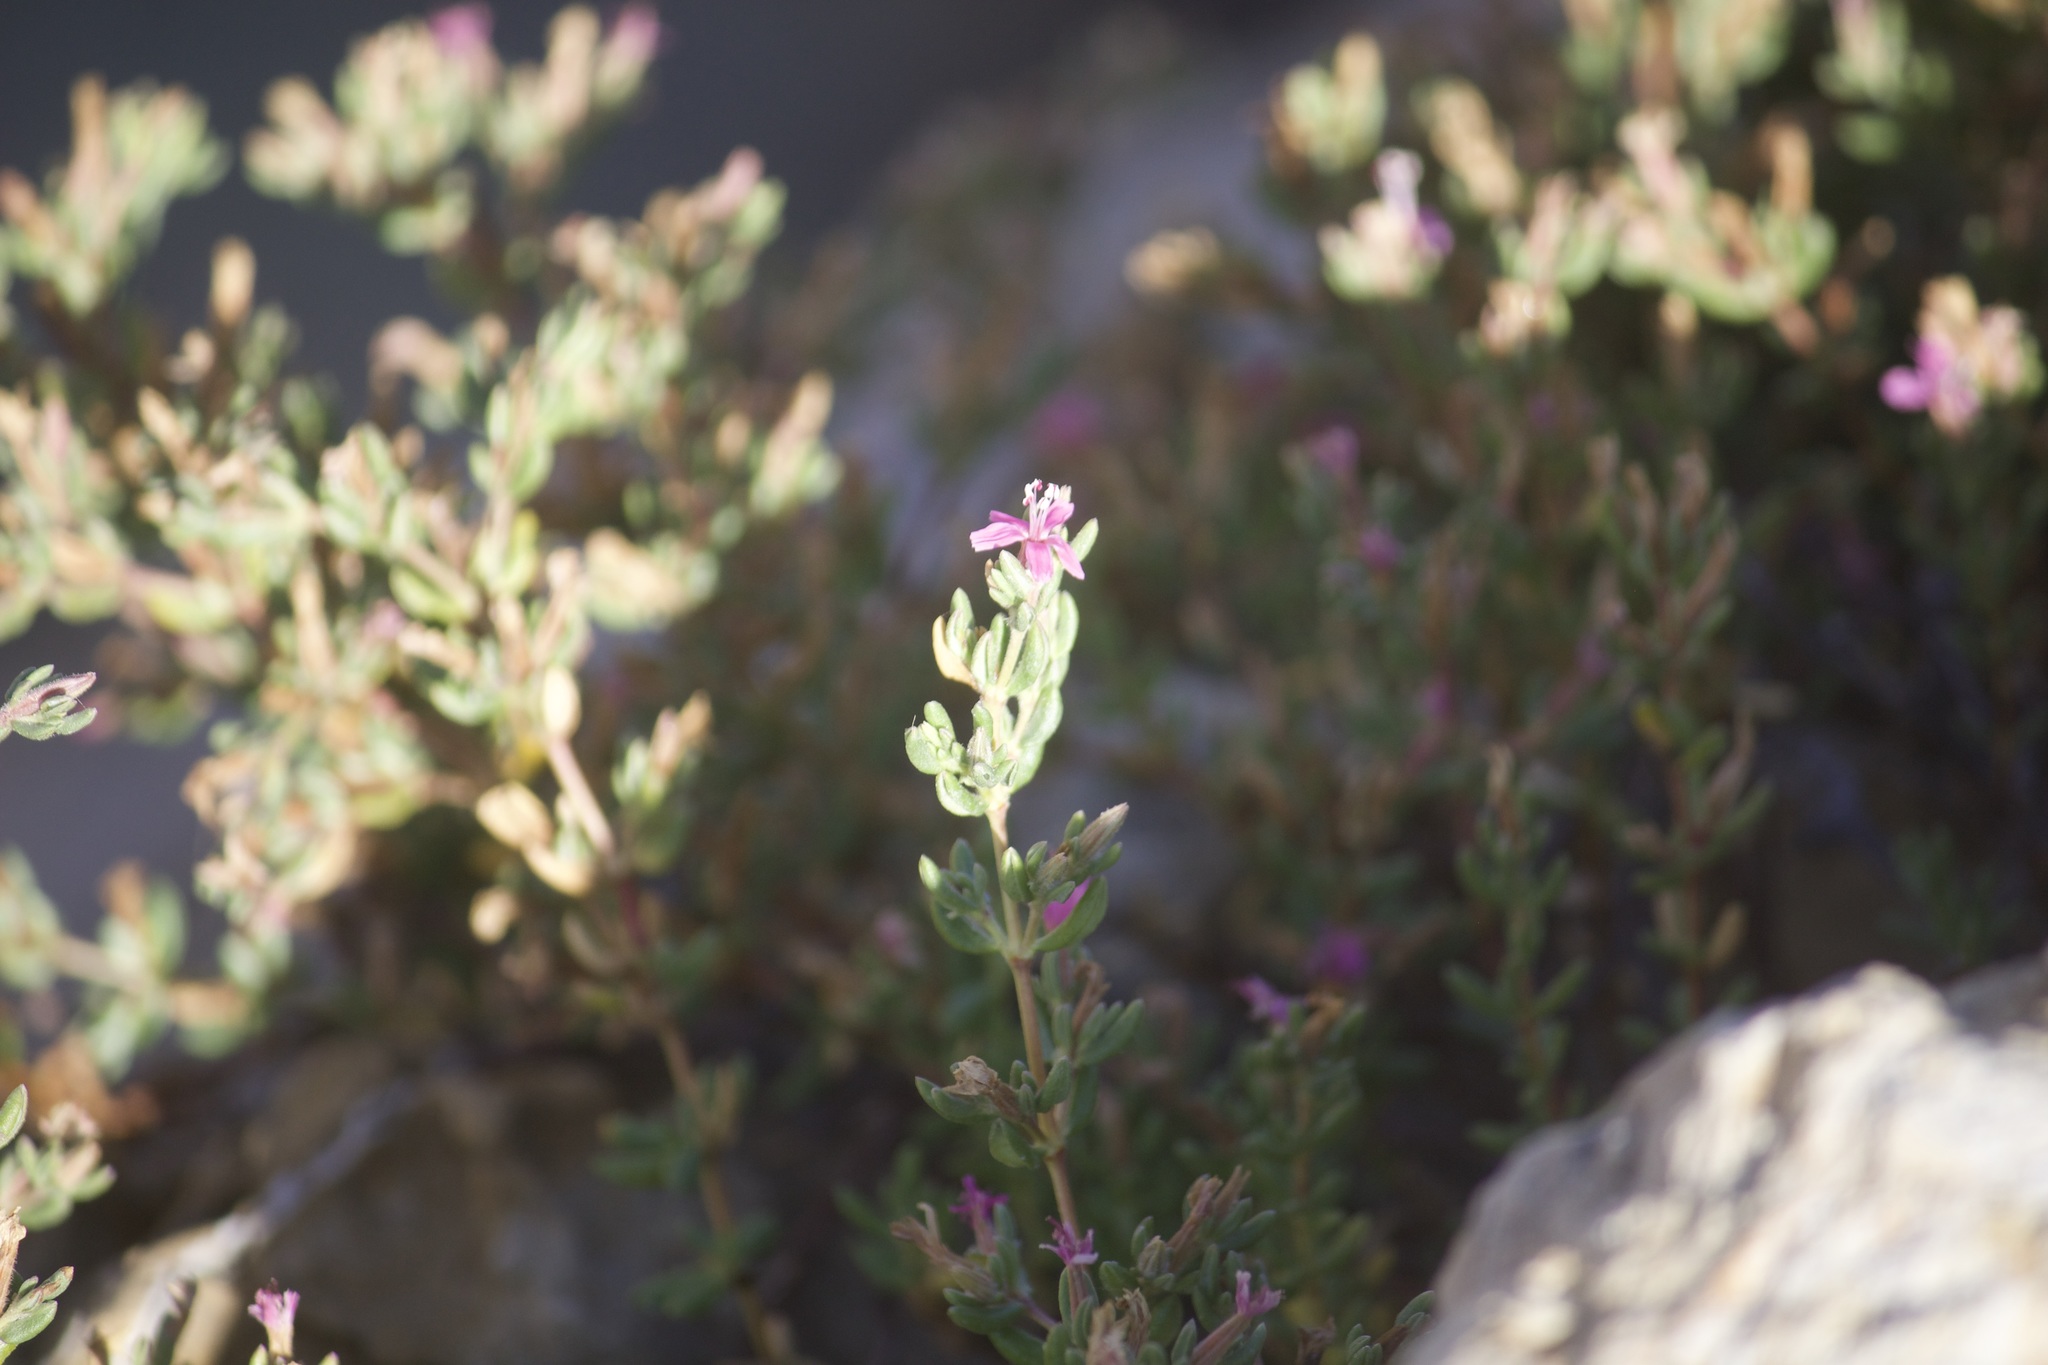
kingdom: Plantae
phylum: Tracheophyta
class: Magnoliopsida
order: Caryophyllales
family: Frankeniaceae
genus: Frankenia
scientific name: Frankenia salina
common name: Alkali seaheath
